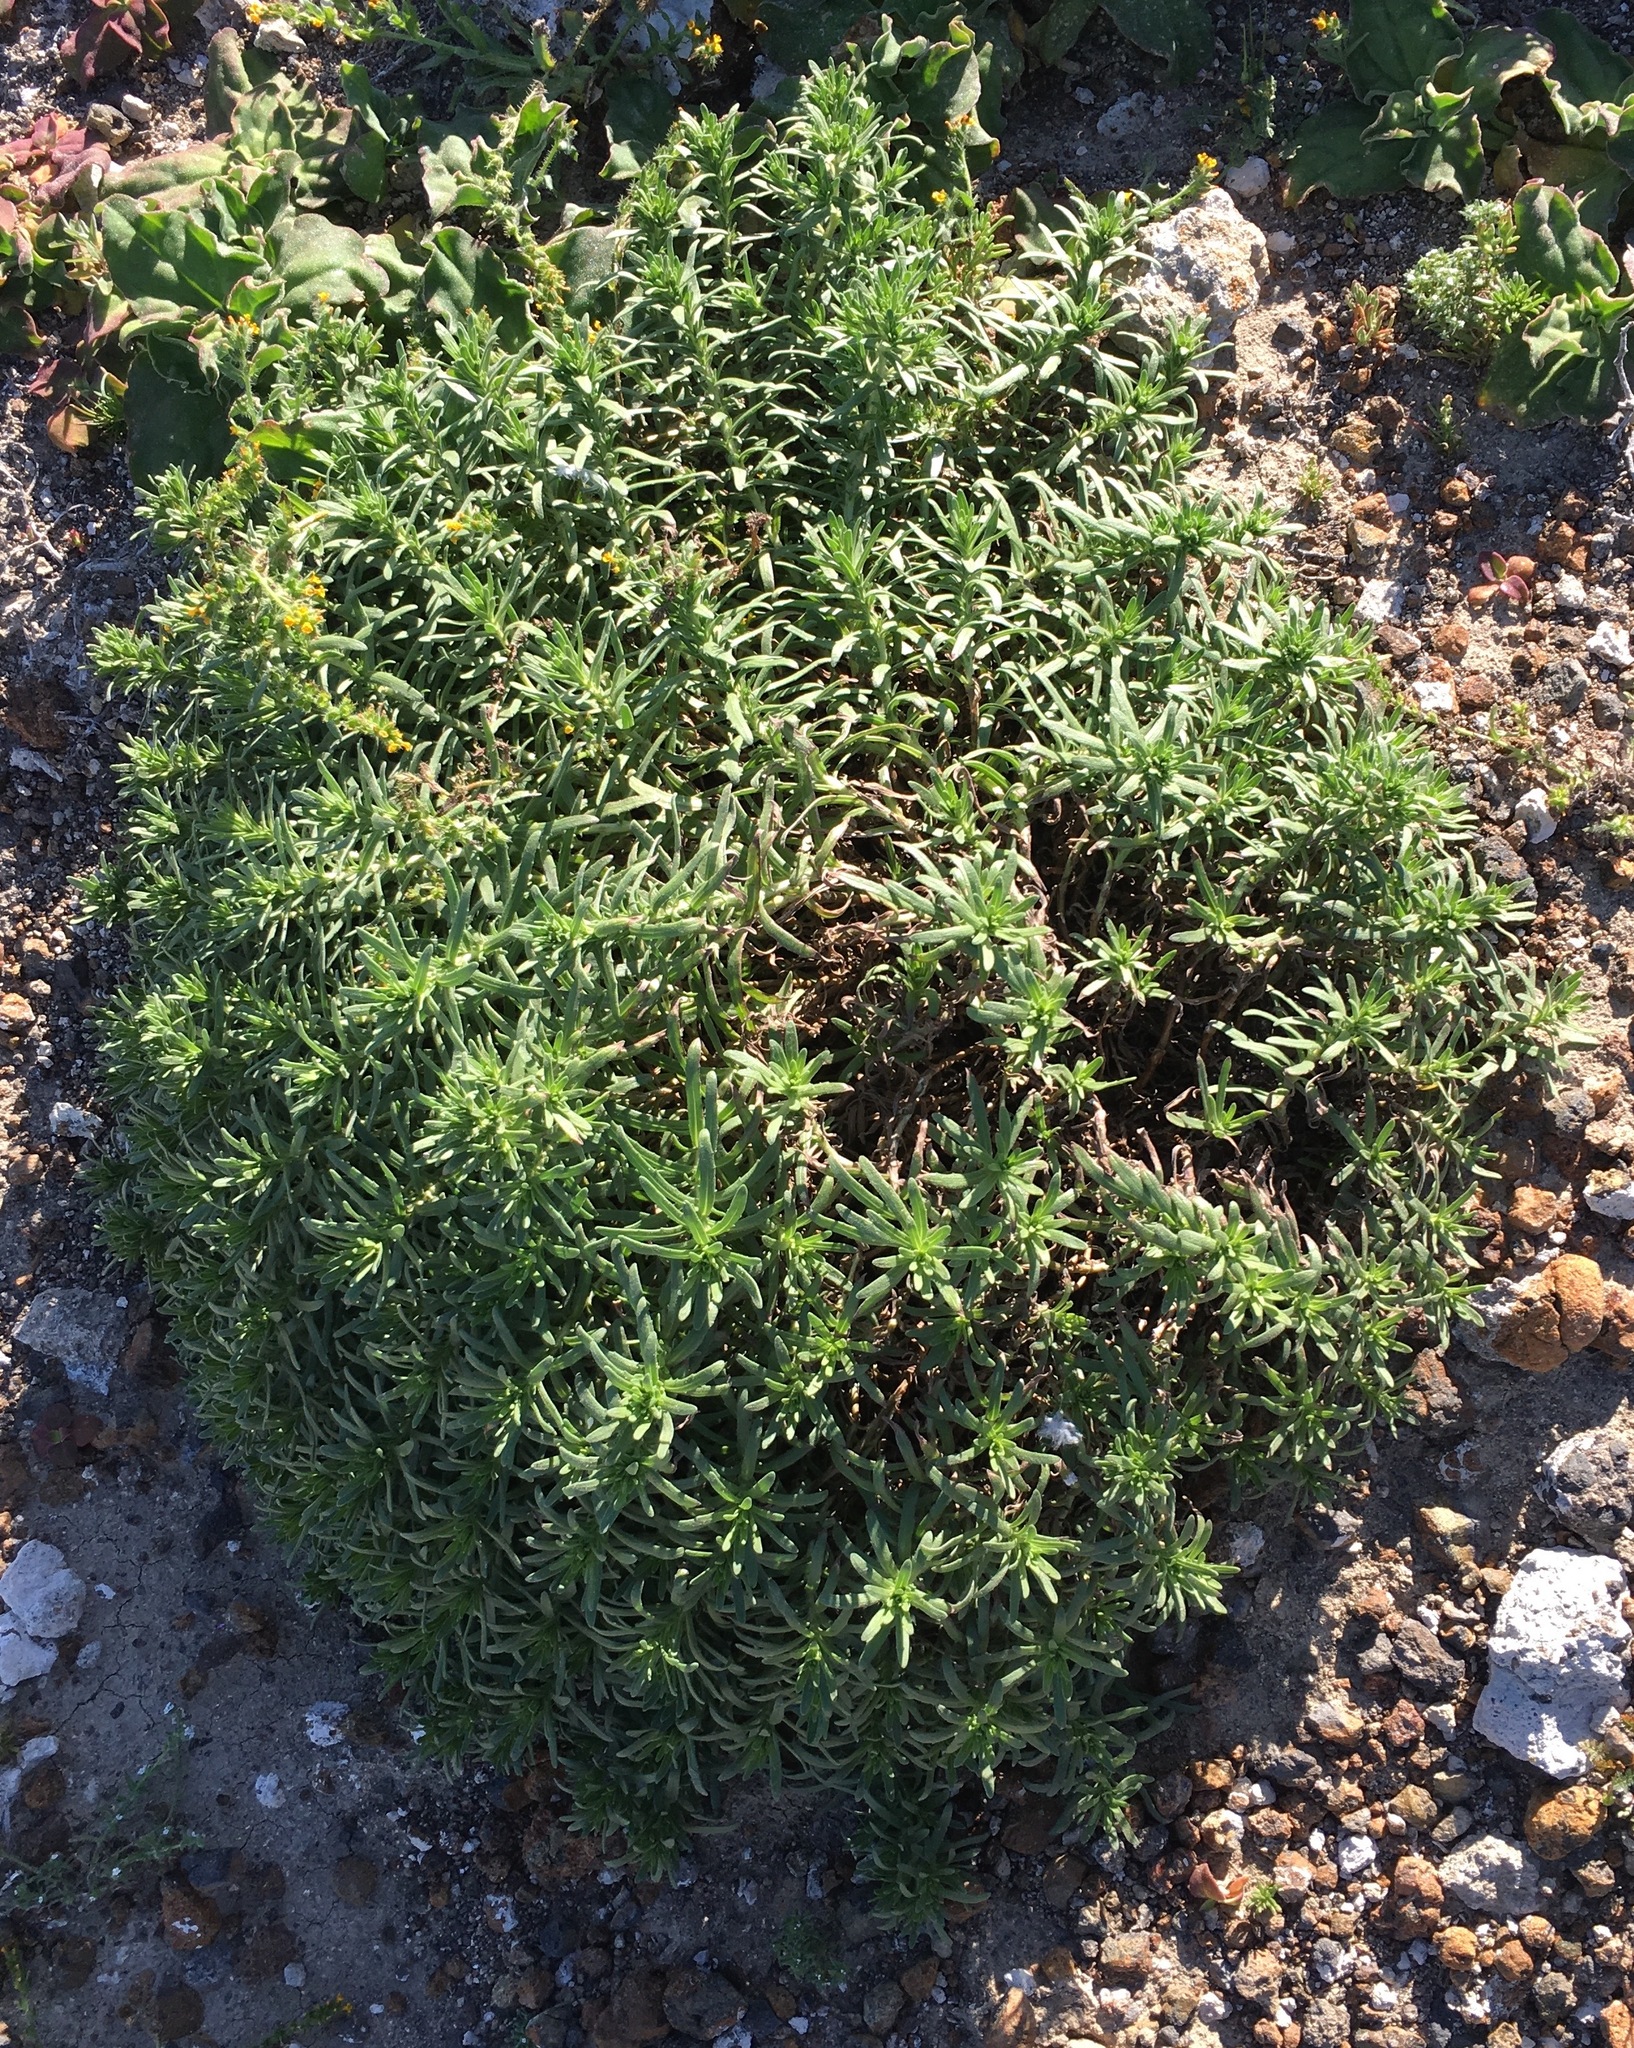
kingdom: Plantae
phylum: Tracheophyta
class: Magnoliopsida
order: Asterales
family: Asteraceae
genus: Deinandra
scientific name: Deinandra clementina
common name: Island tarplant
